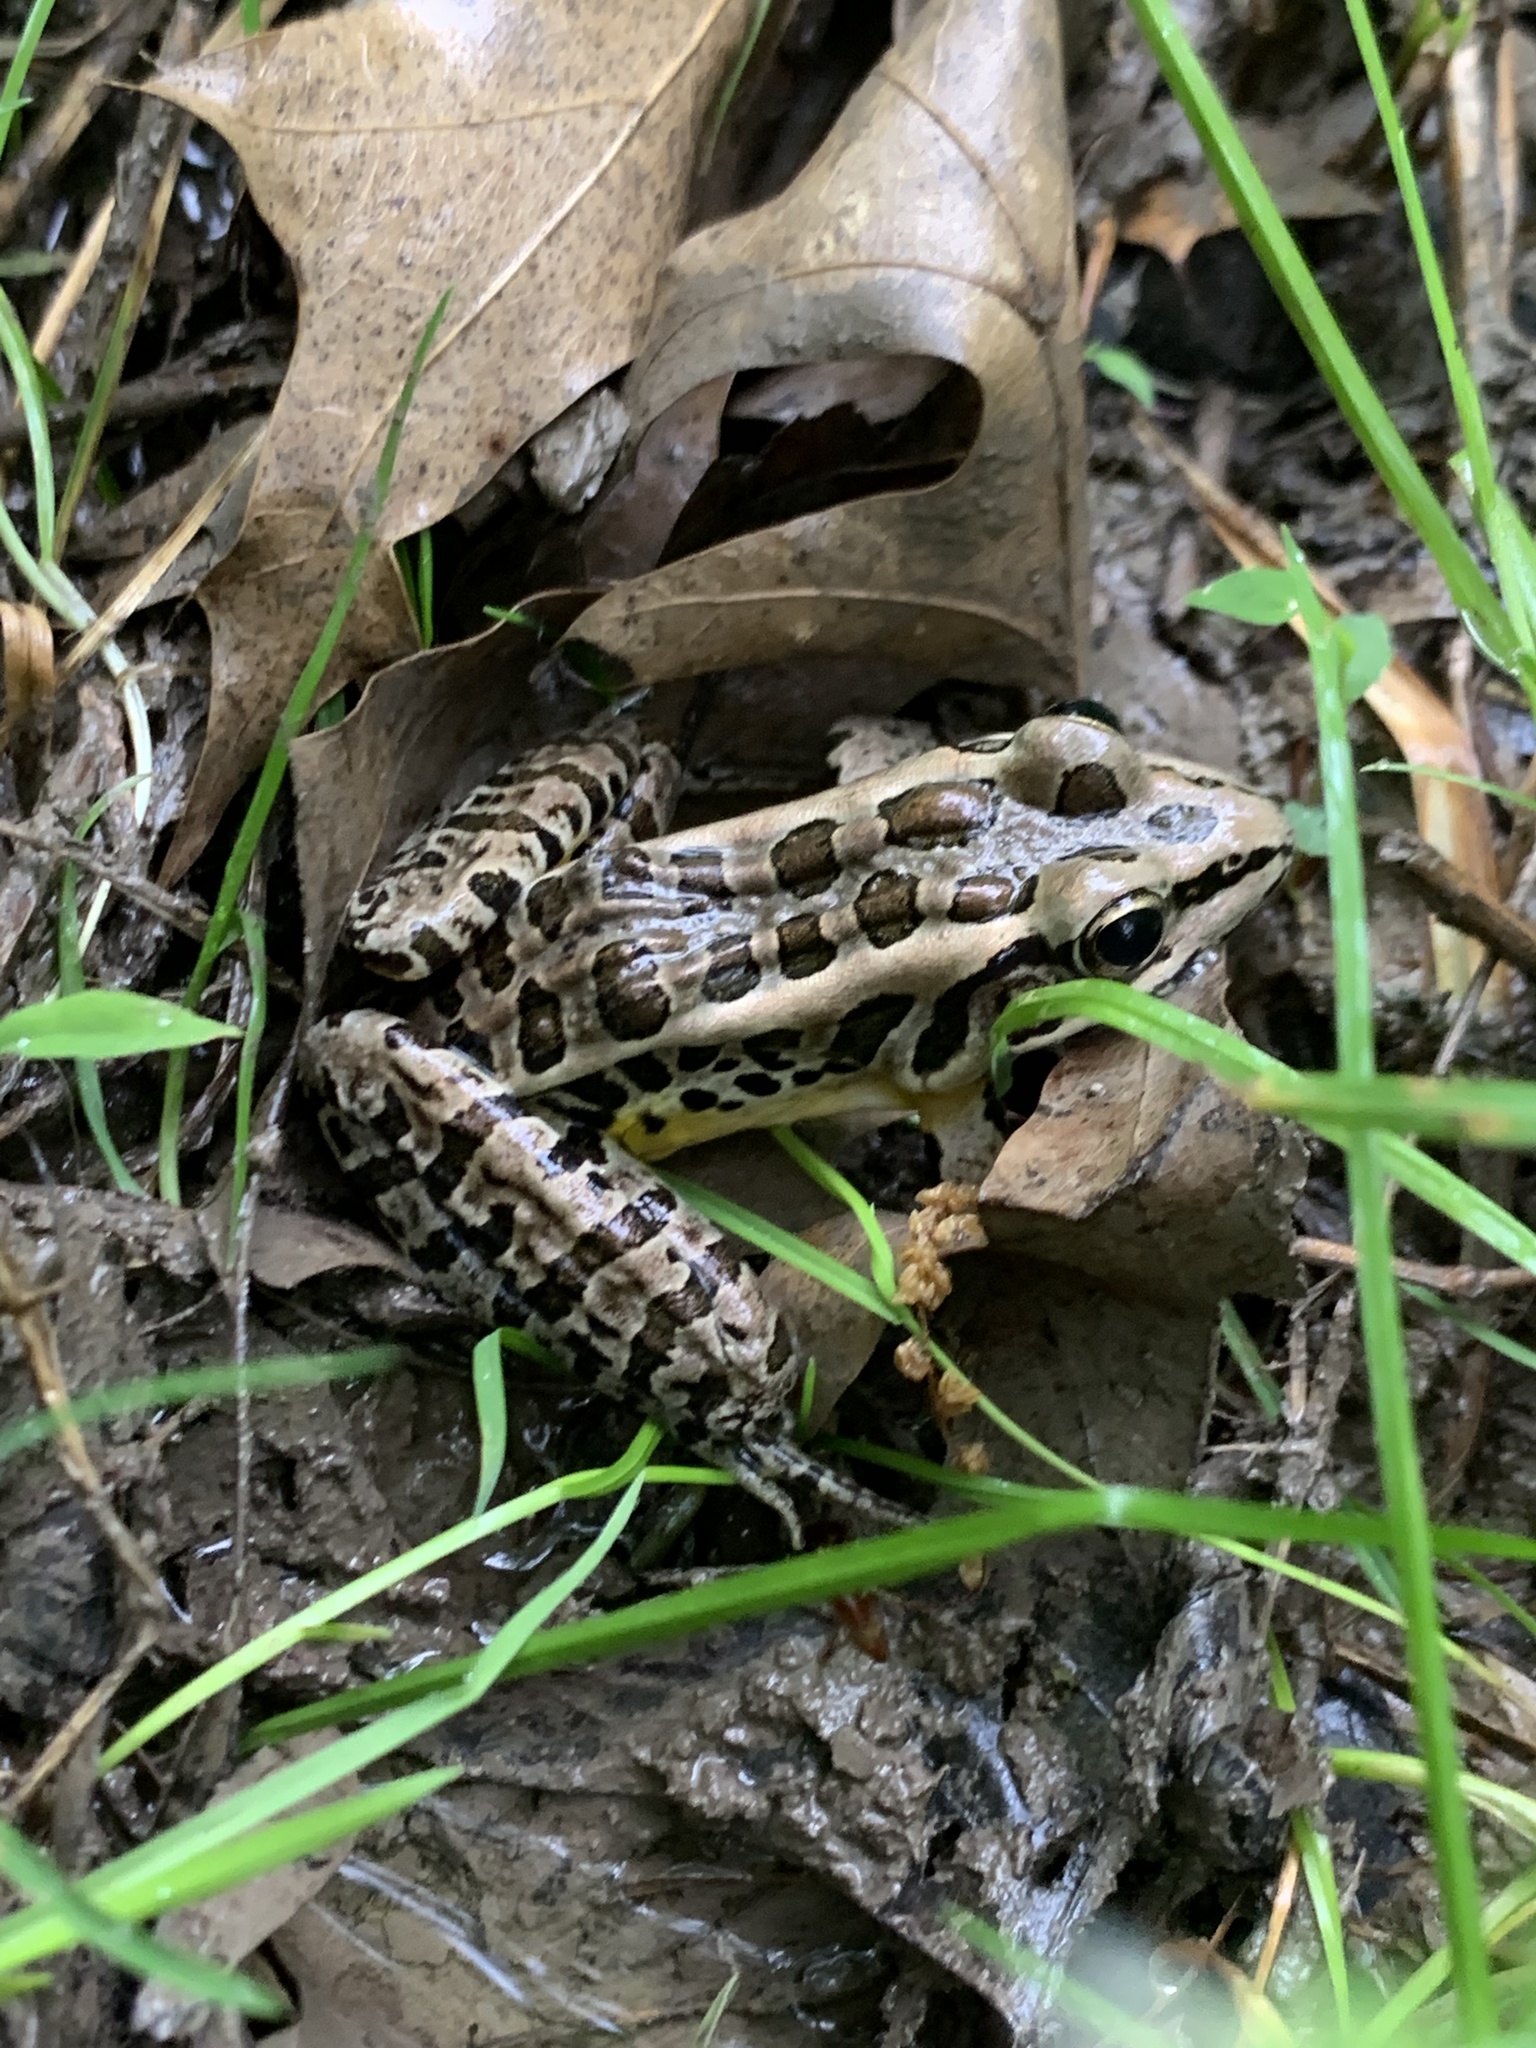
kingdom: Animalia
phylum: Chordata
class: Amphibia
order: Anura
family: Ranidae
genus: Lithobates
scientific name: Lithobates palustris
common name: Pickerel frog
